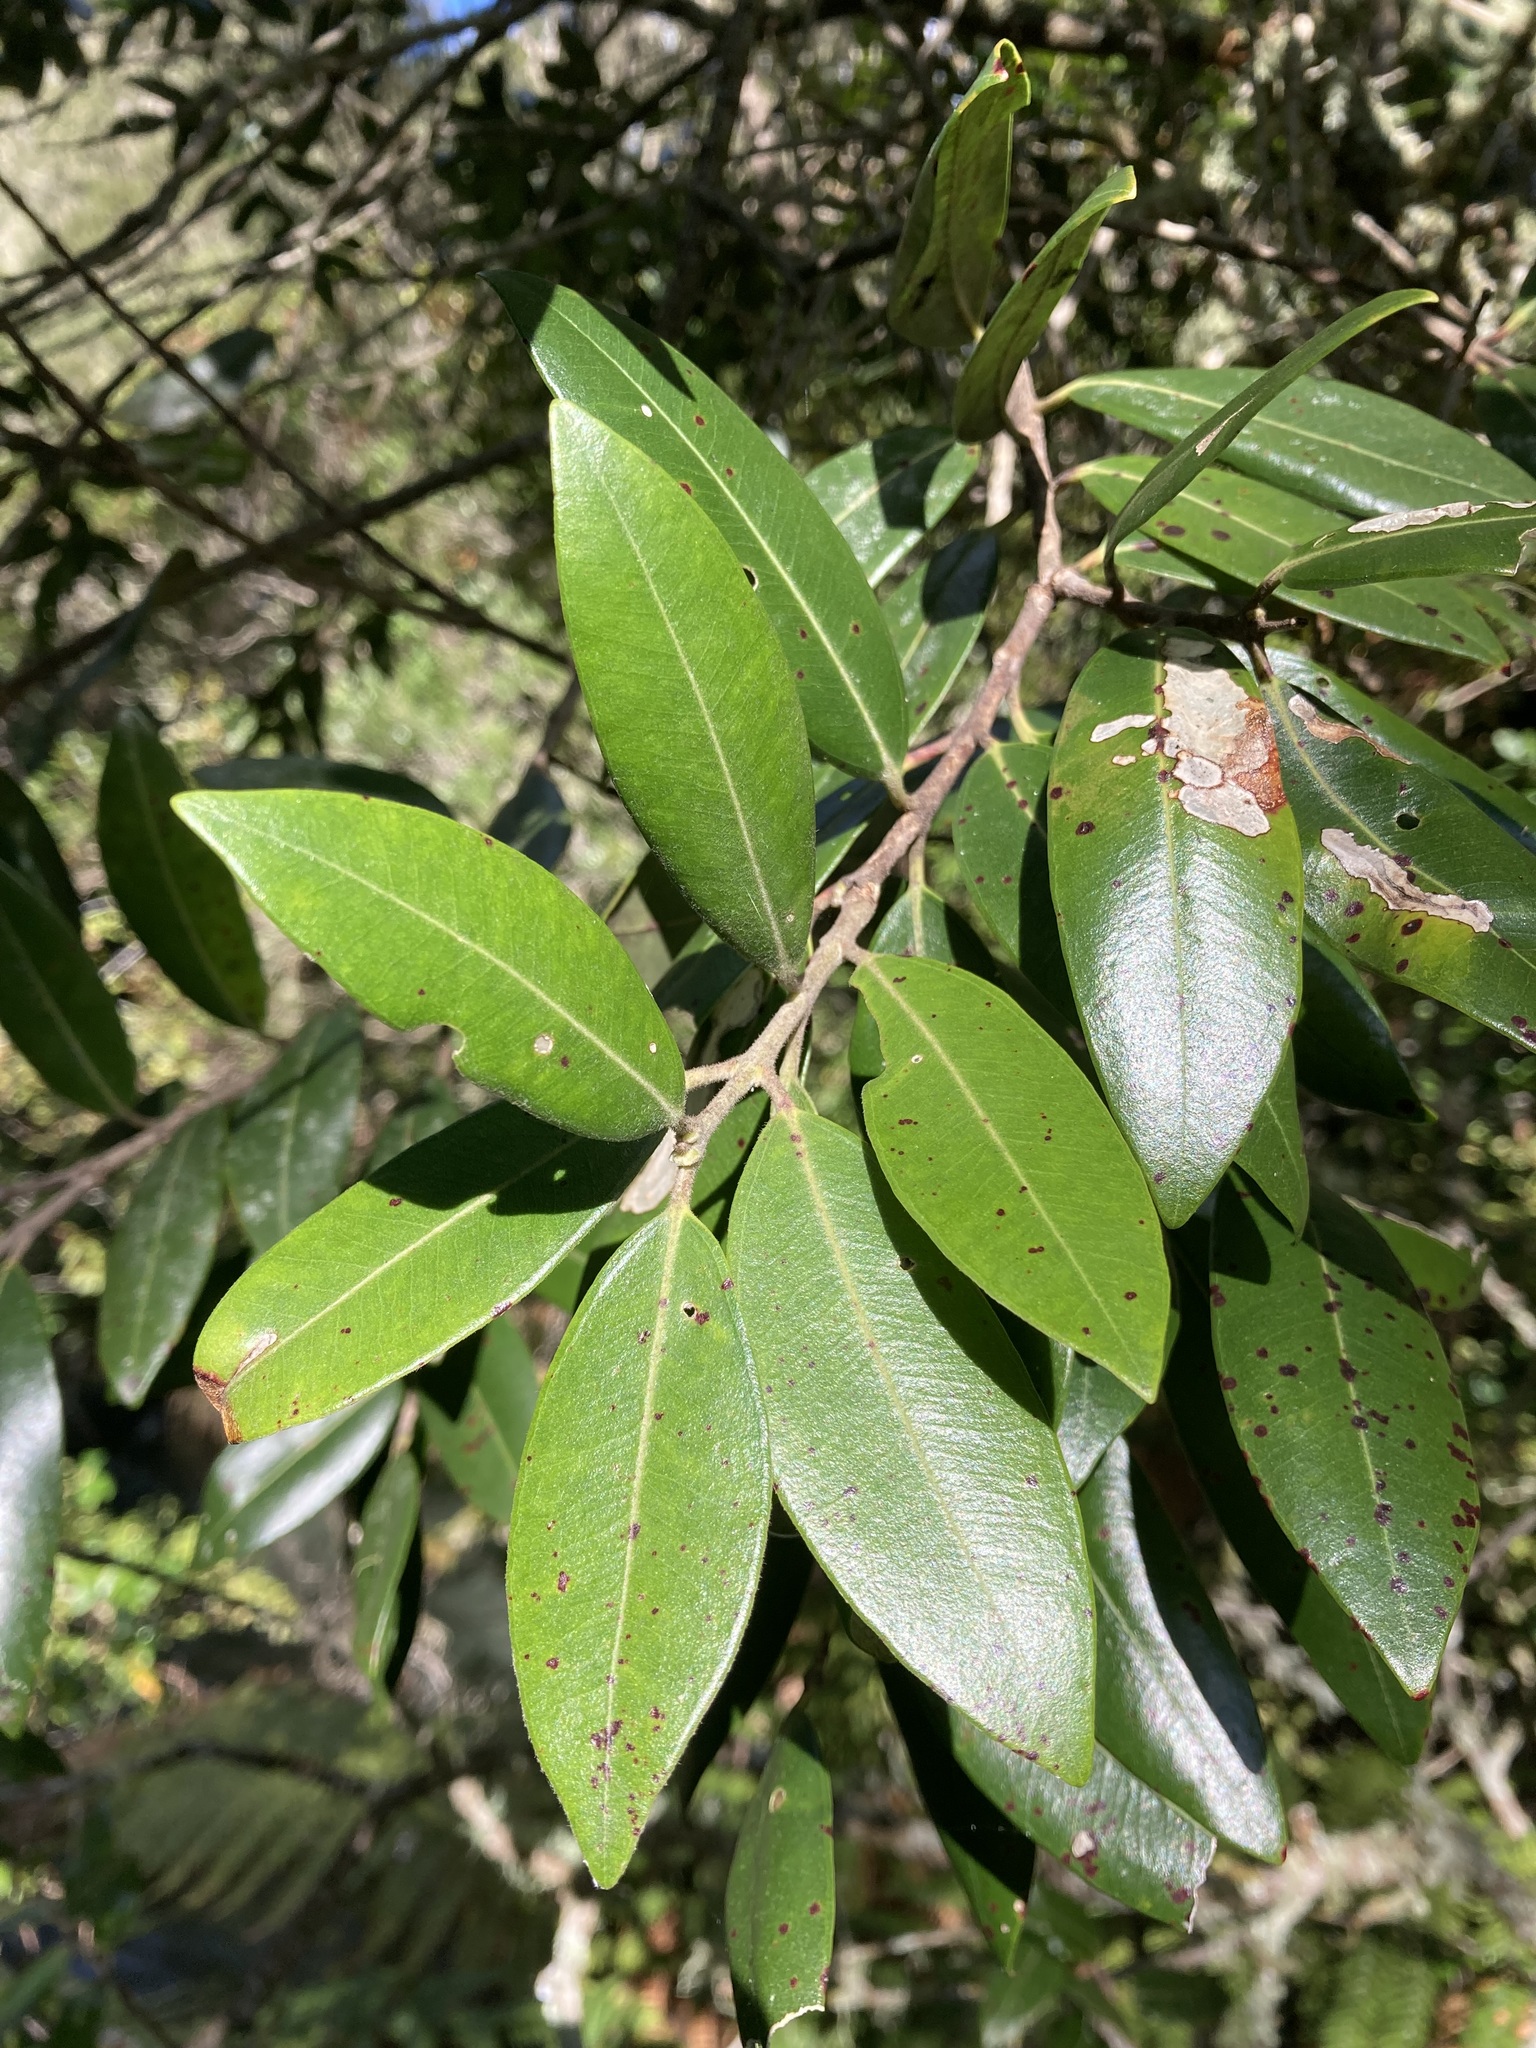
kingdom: Plantae
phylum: Tracheophyta
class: Magnoliopsida
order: Myrtales
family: Myrtaceae
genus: Metrosideros
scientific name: Metrosideros excelsa
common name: New zealand christmastree
